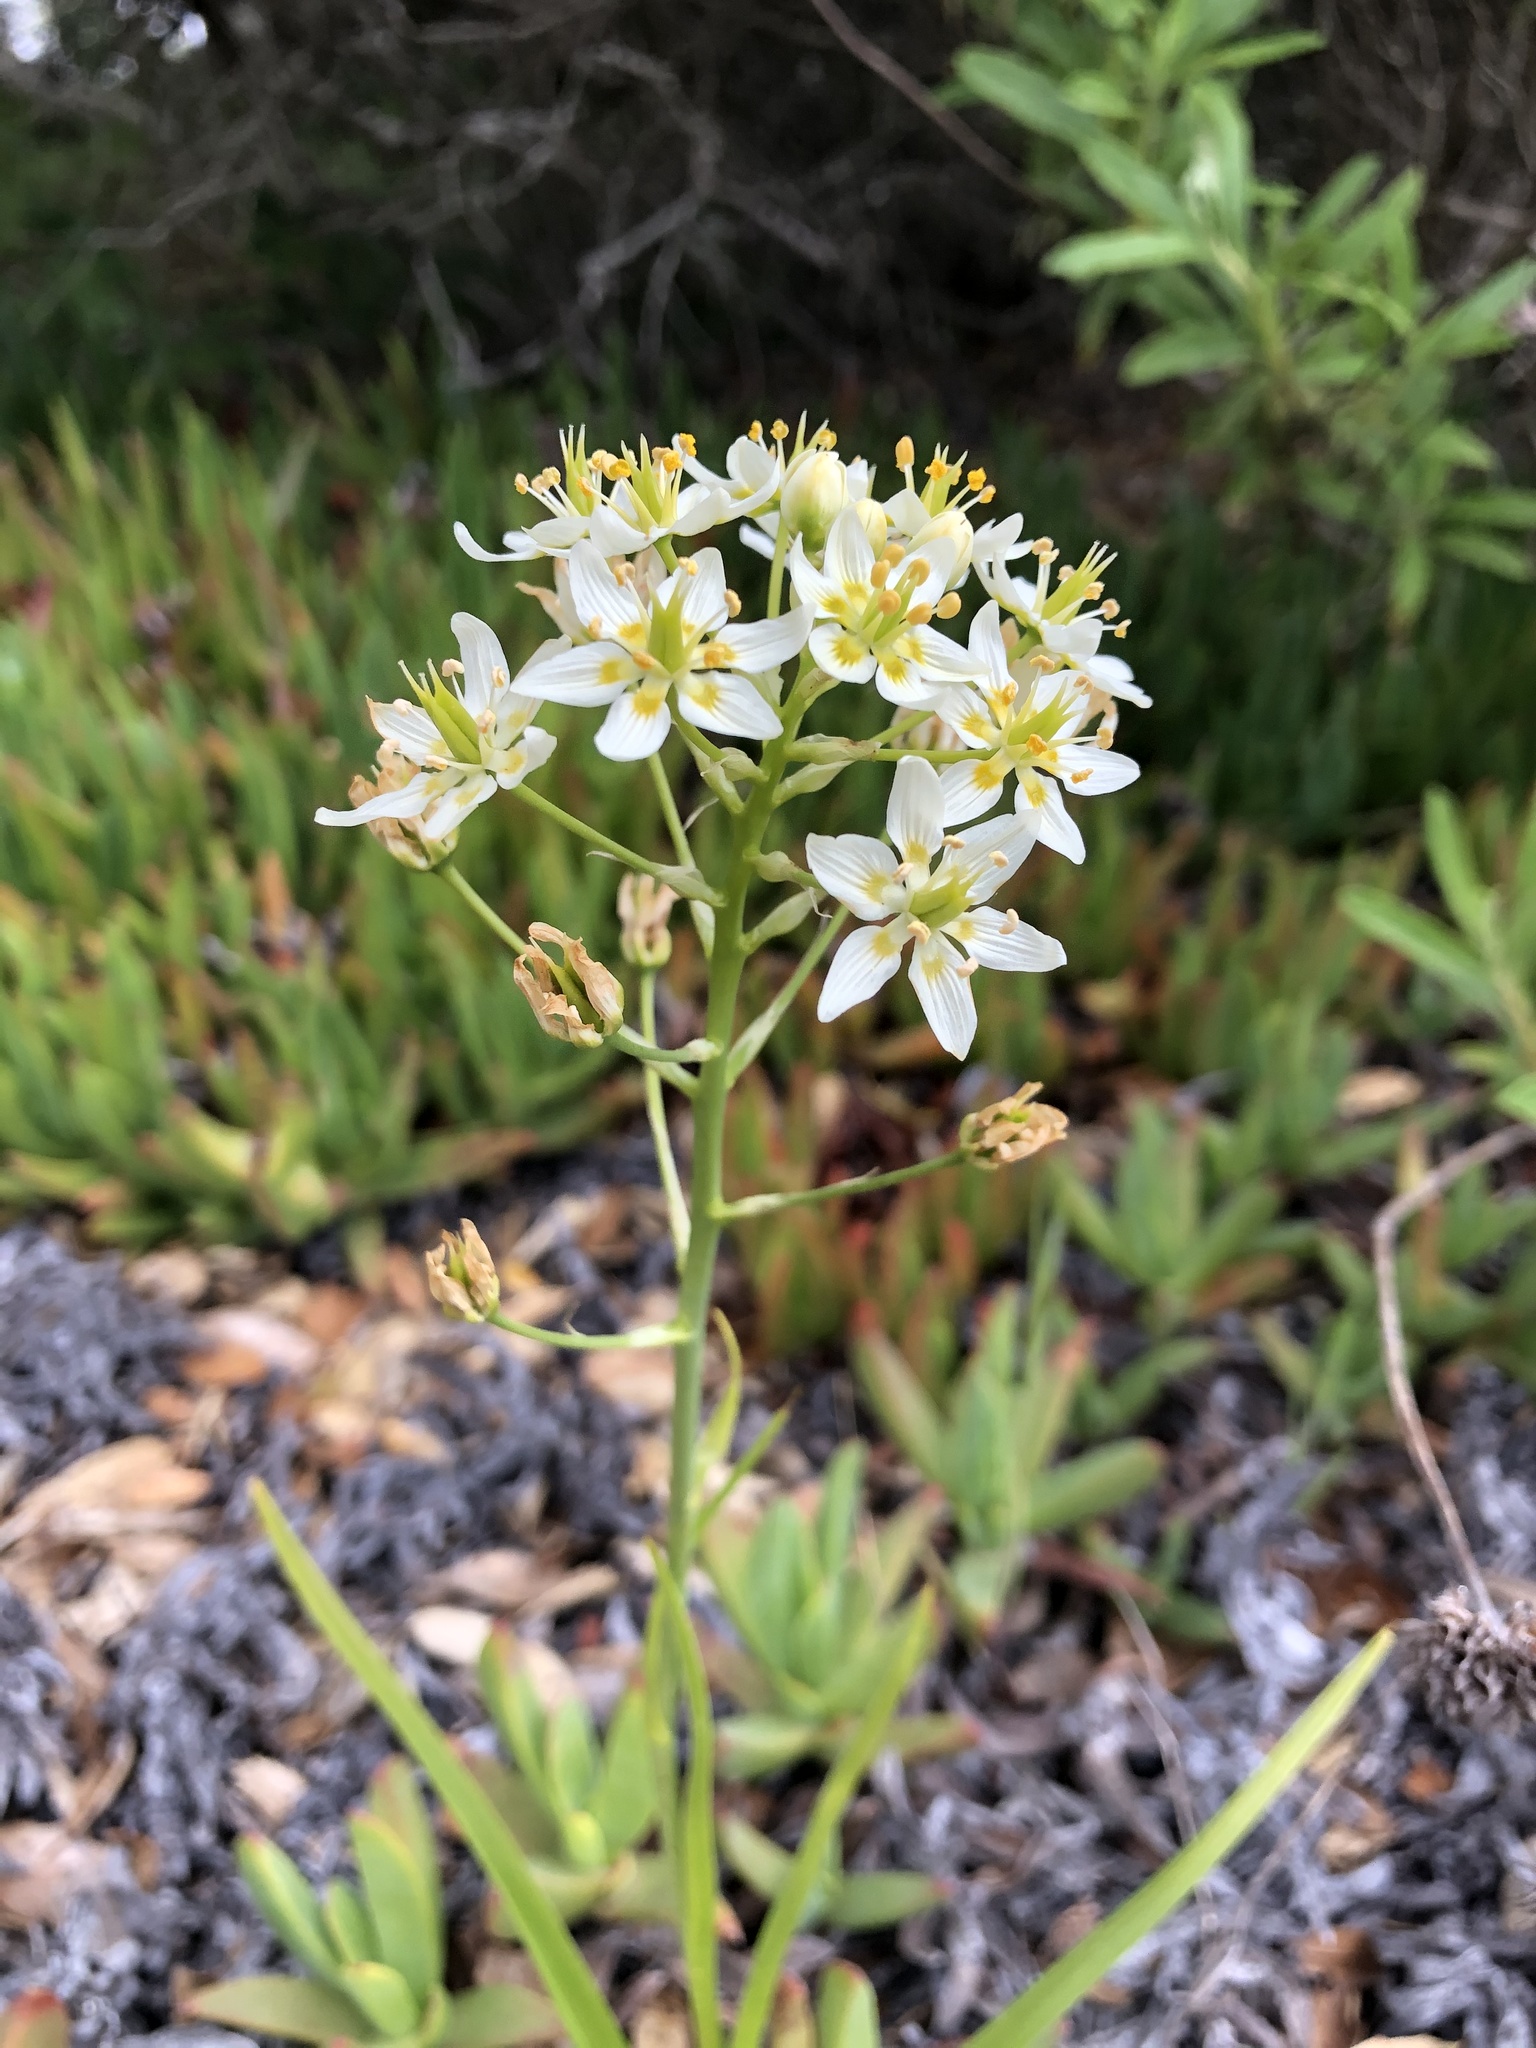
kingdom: Plantae
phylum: Tracheophyta
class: Liliopsida
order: Liliales
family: Melanthiaceae
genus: Toxicoscordion
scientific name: Toxicoscordion fremontii
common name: Fremont's death camas
